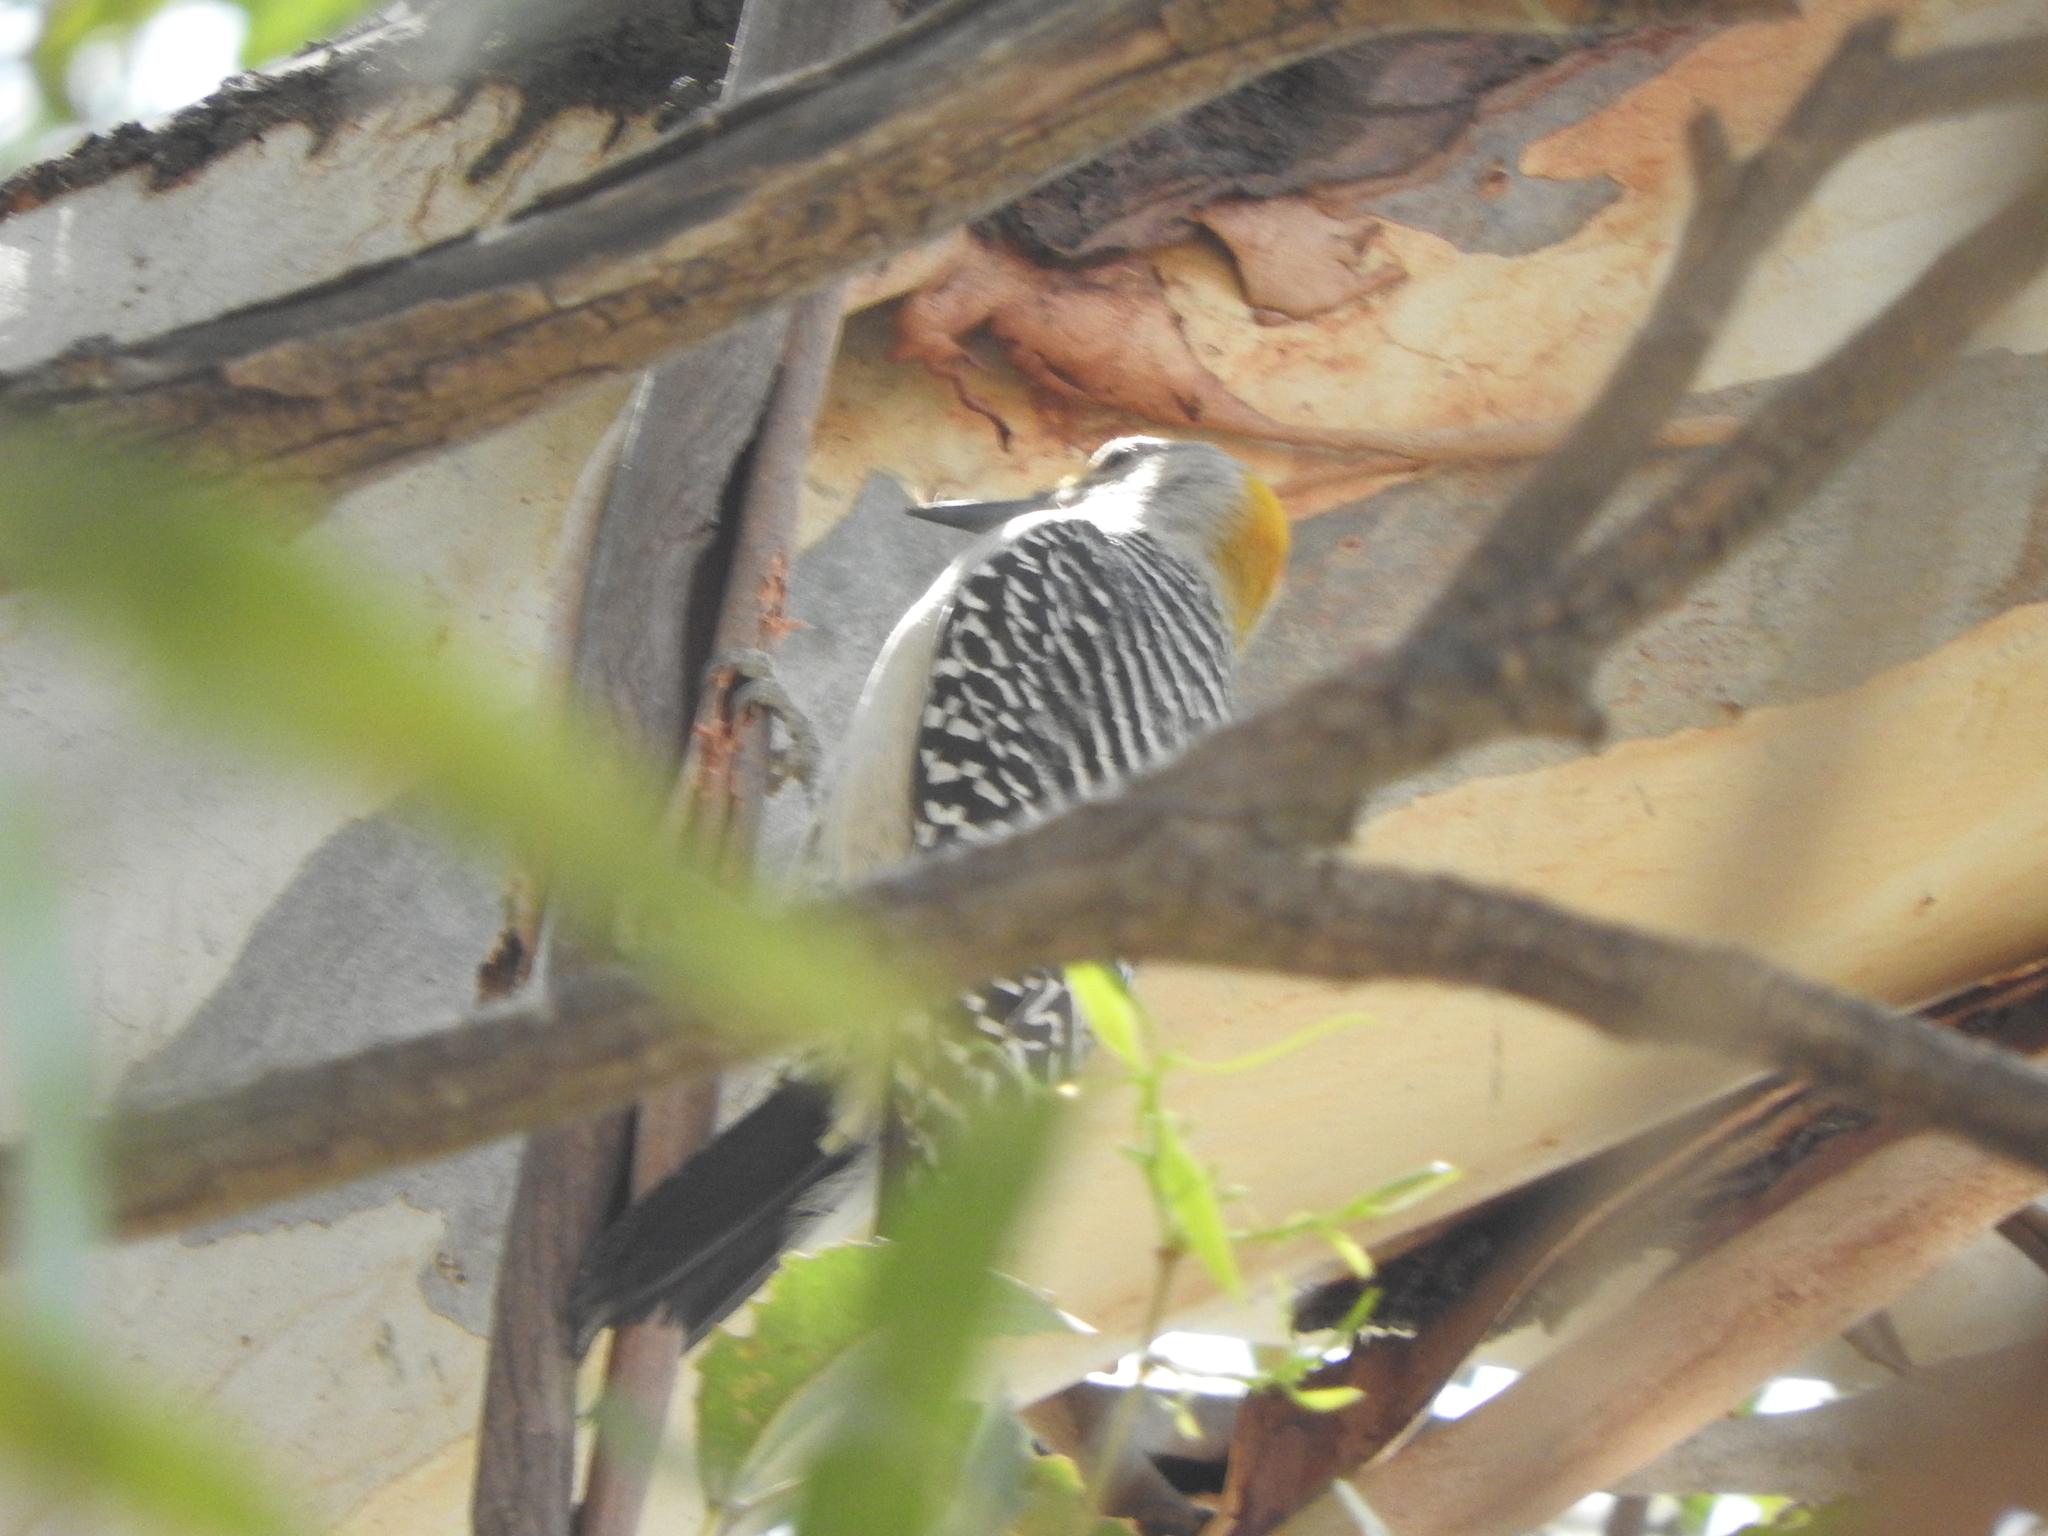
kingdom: Animalia
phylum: Chordata
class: Aves
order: Piciformes
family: Picidae
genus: Melanerpes
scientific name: Melanerpes aurifrons
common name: Golden-fronted woodpecker
